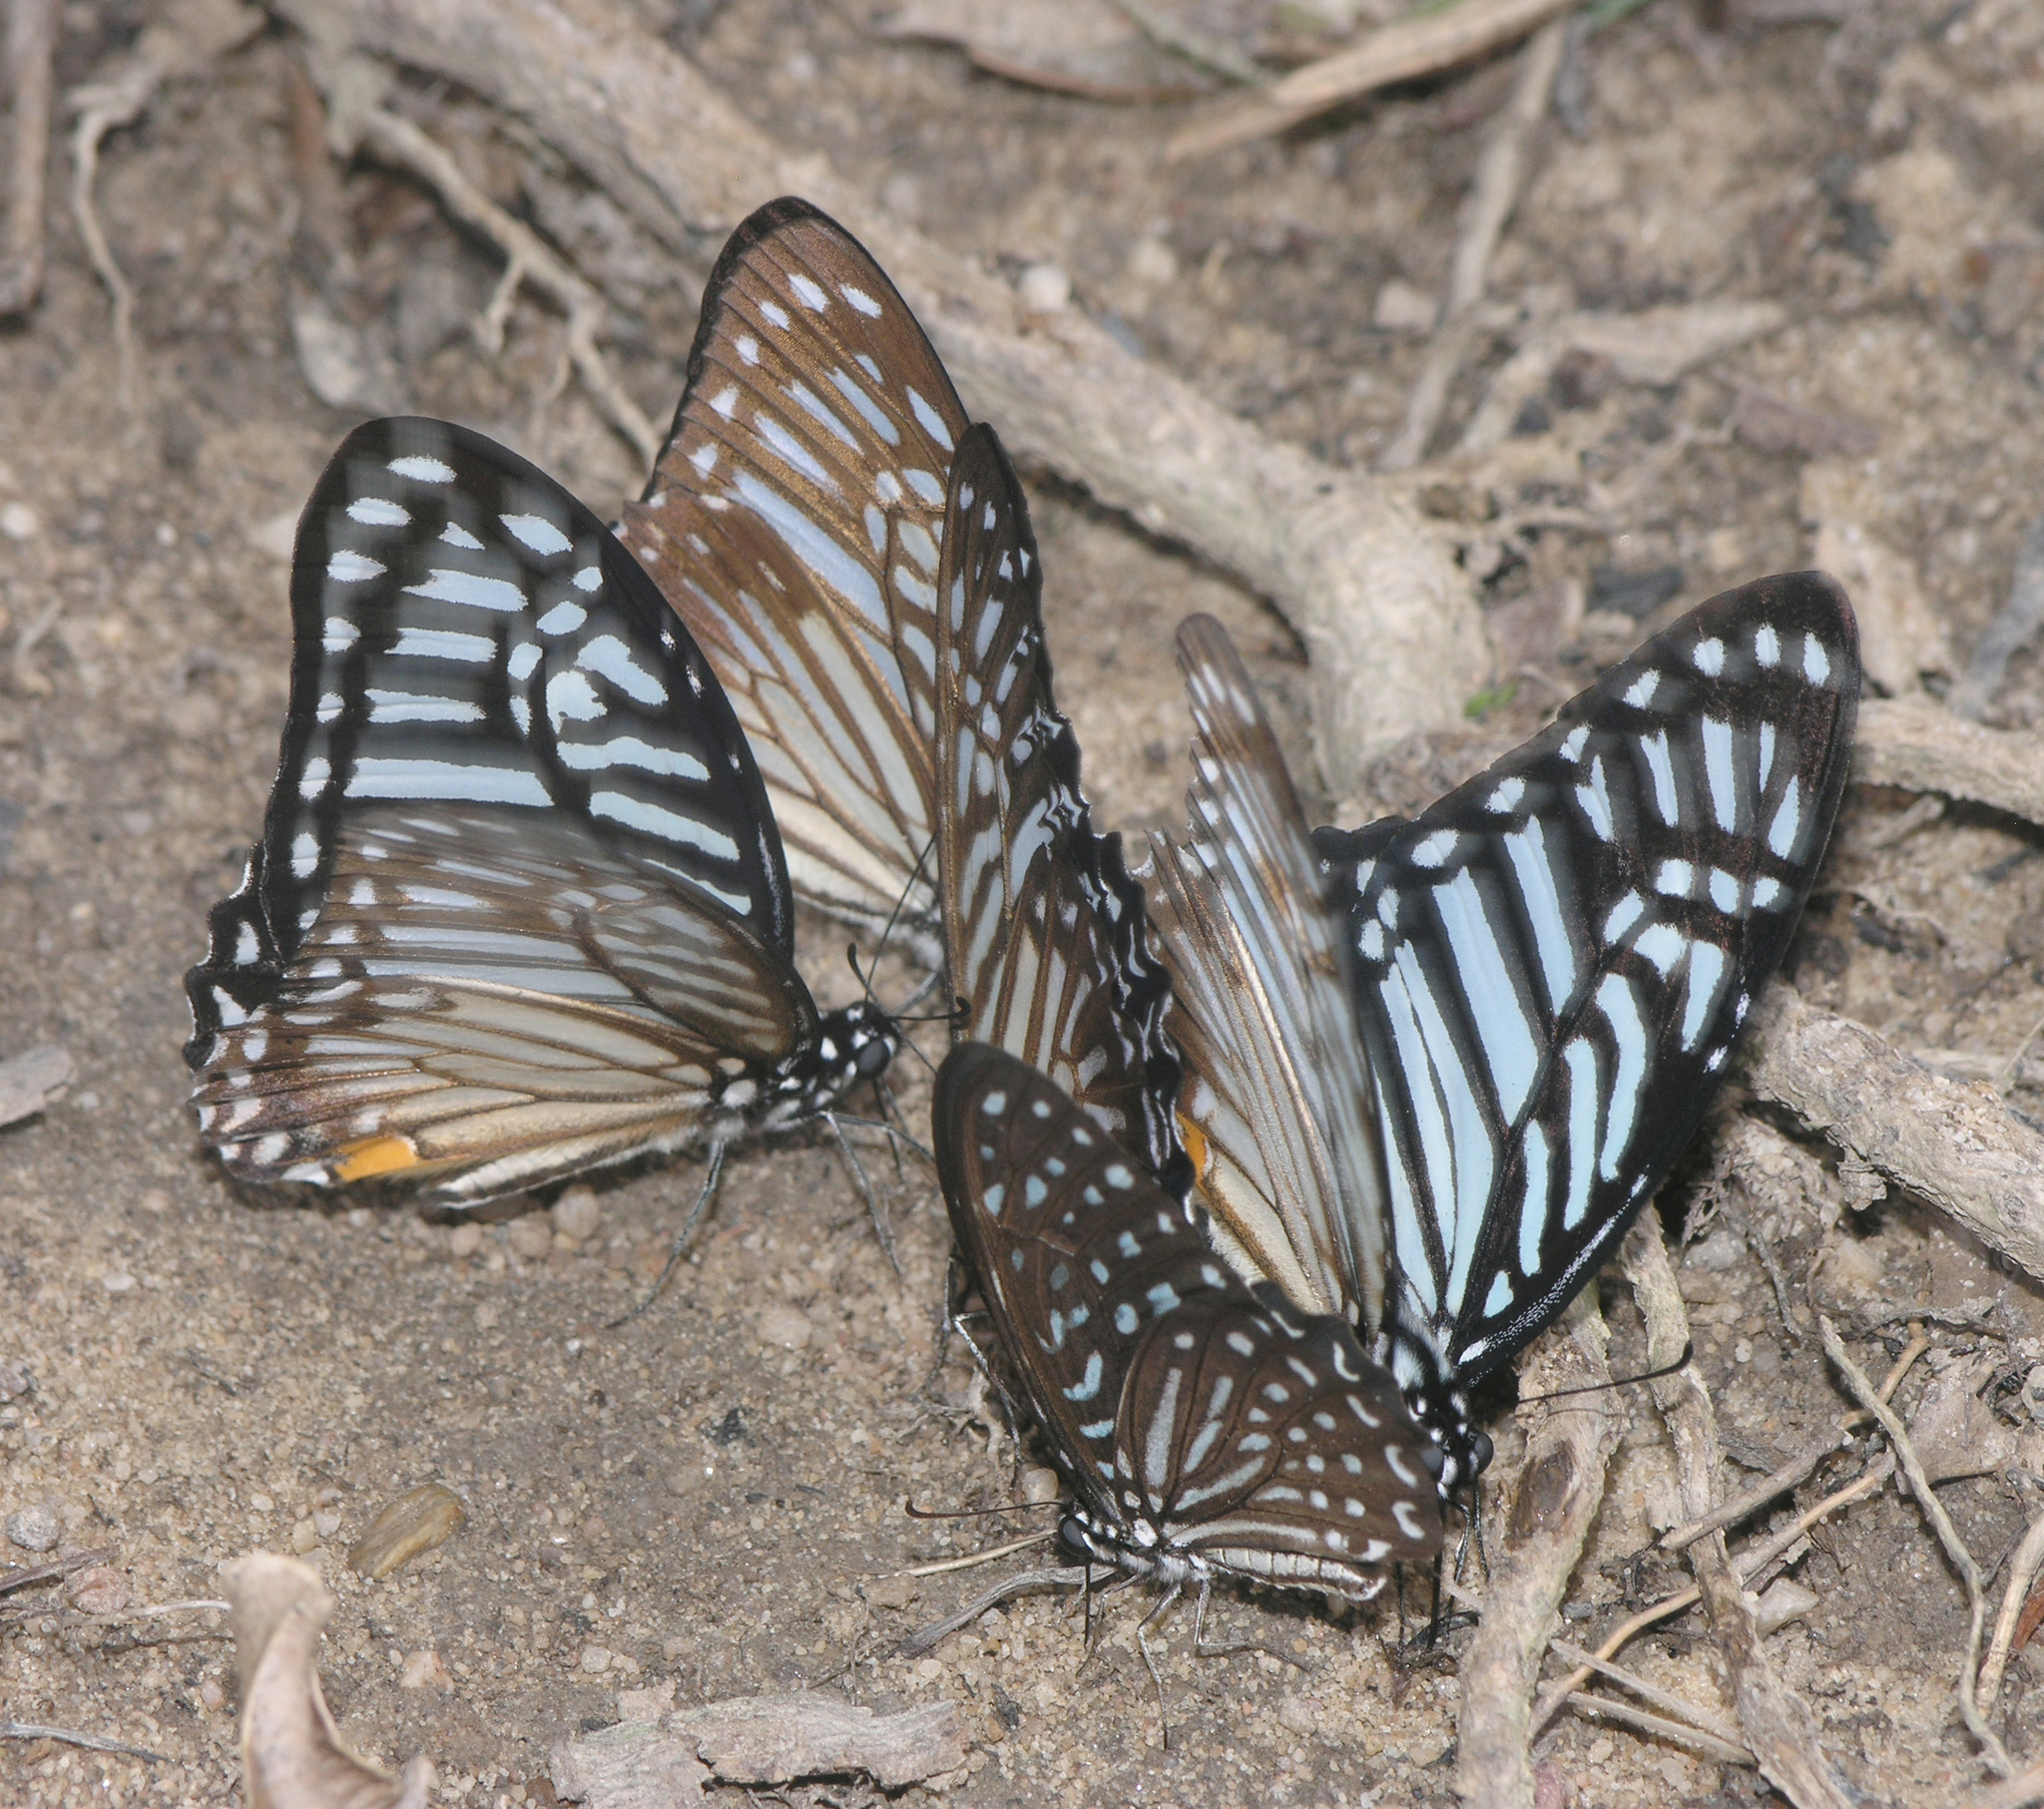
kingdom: Animalia
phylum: Arthropoda
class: Insecta
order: Lepidoptera
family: Papilionidae
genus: Graphium
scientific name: Graphium megarus
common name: Spotted zebra
